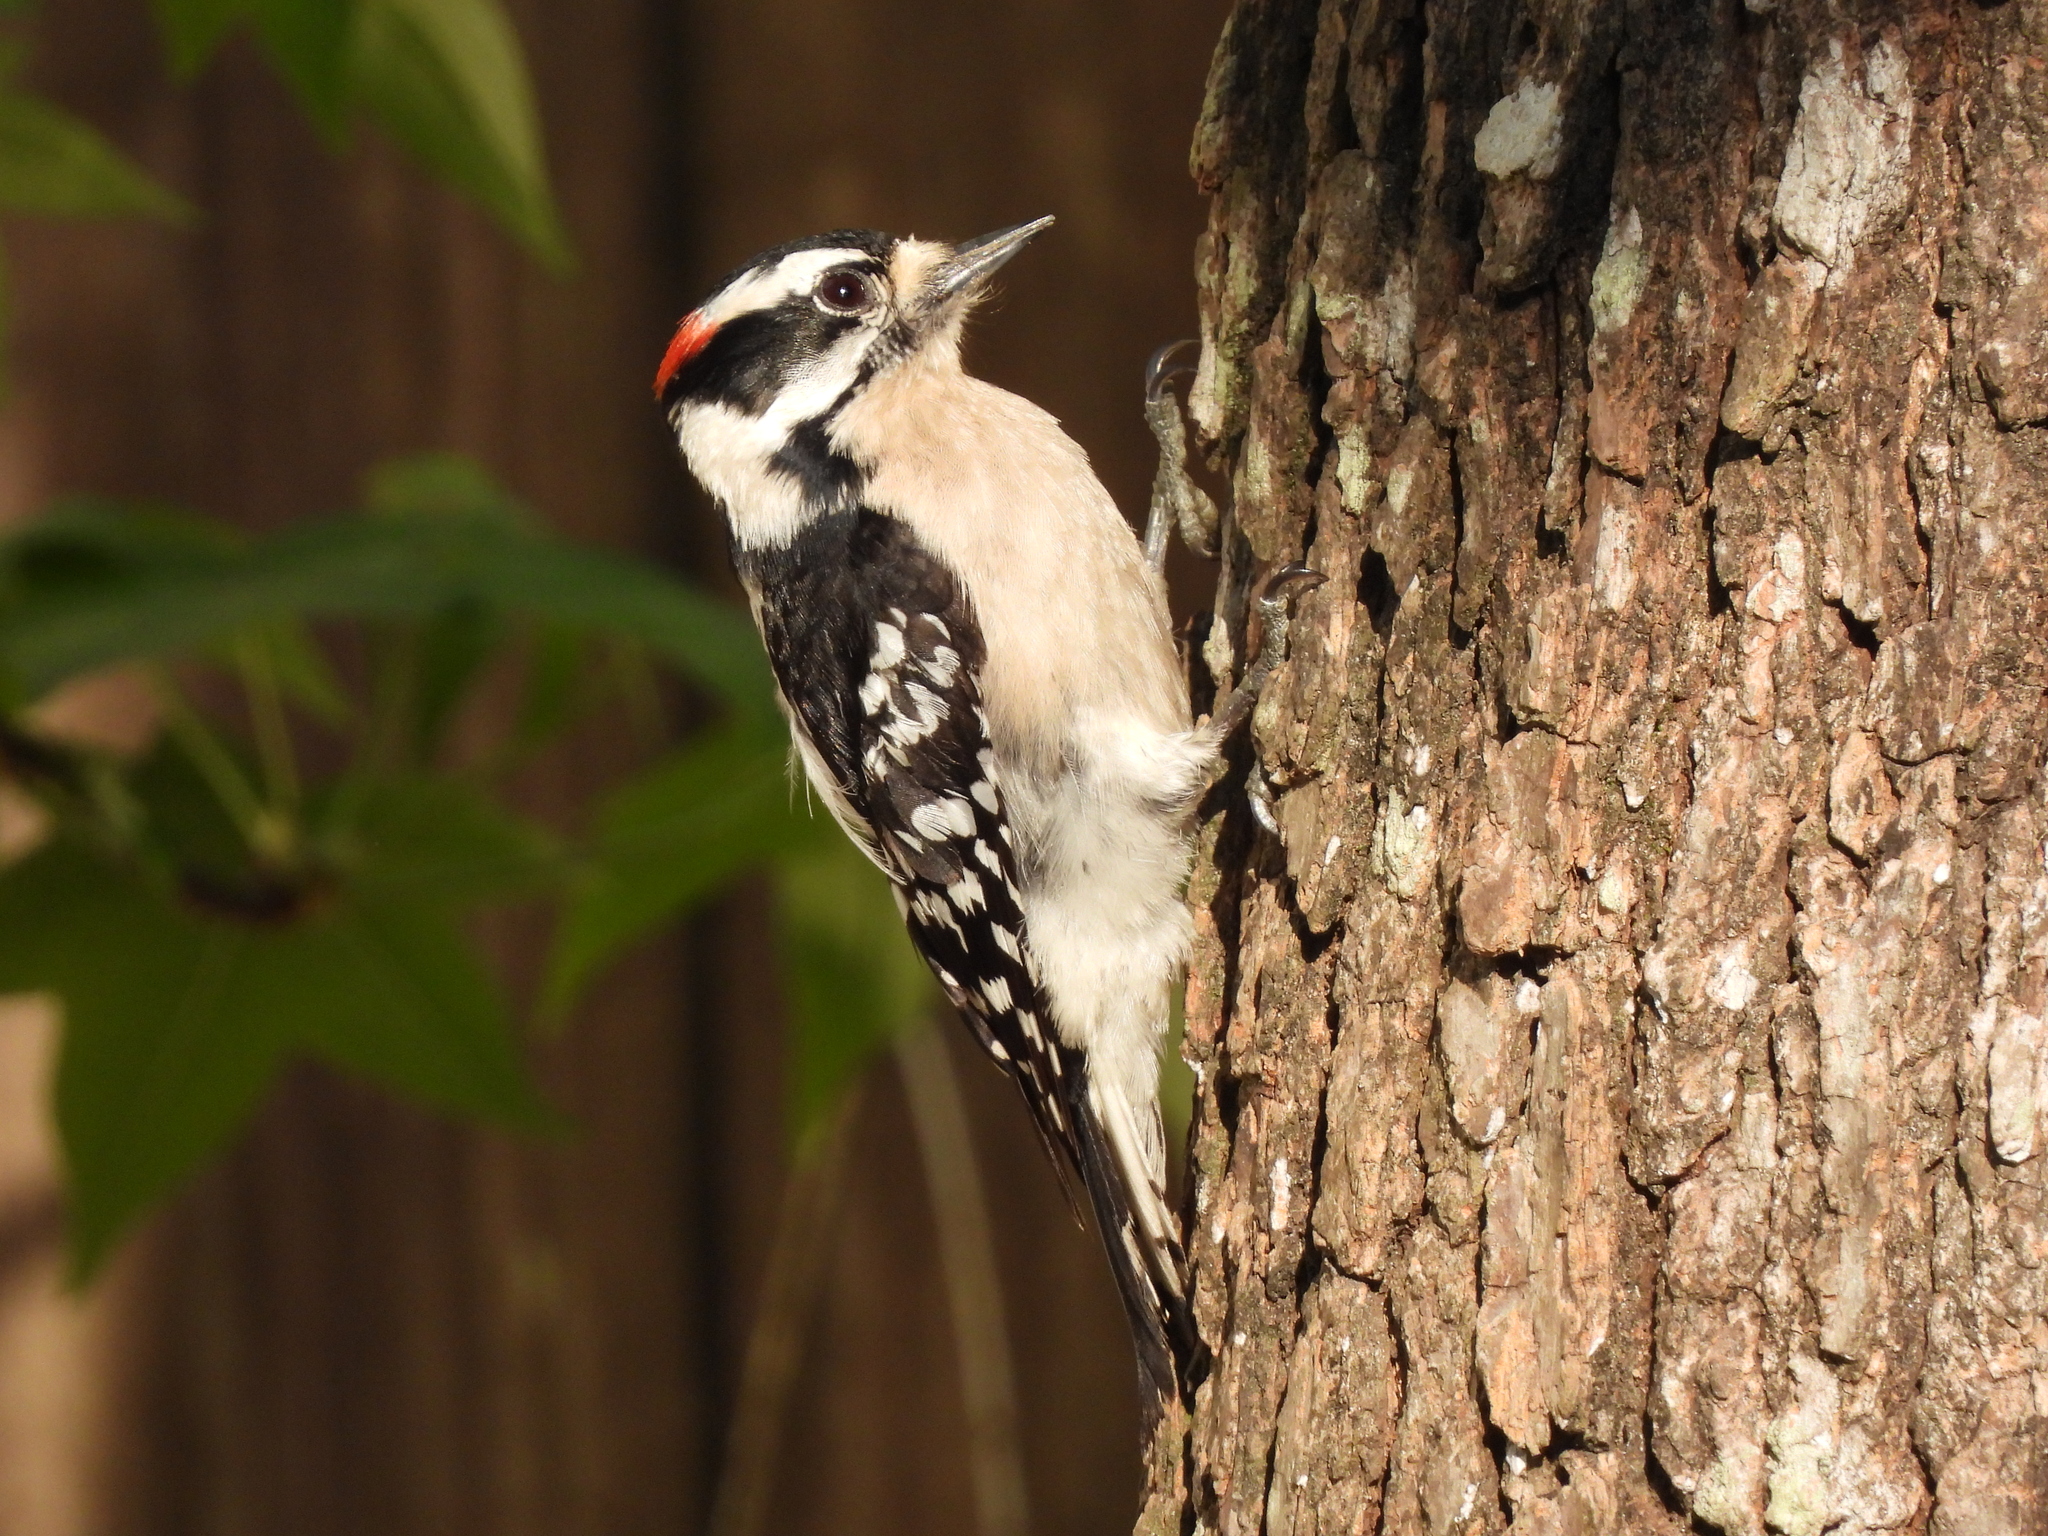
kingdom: Animalia
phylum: Chordata
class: Aves
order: Piciformes
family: Picidae
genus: Dryobates
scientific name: Dryobates pubescens
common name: Downy woodpecker
